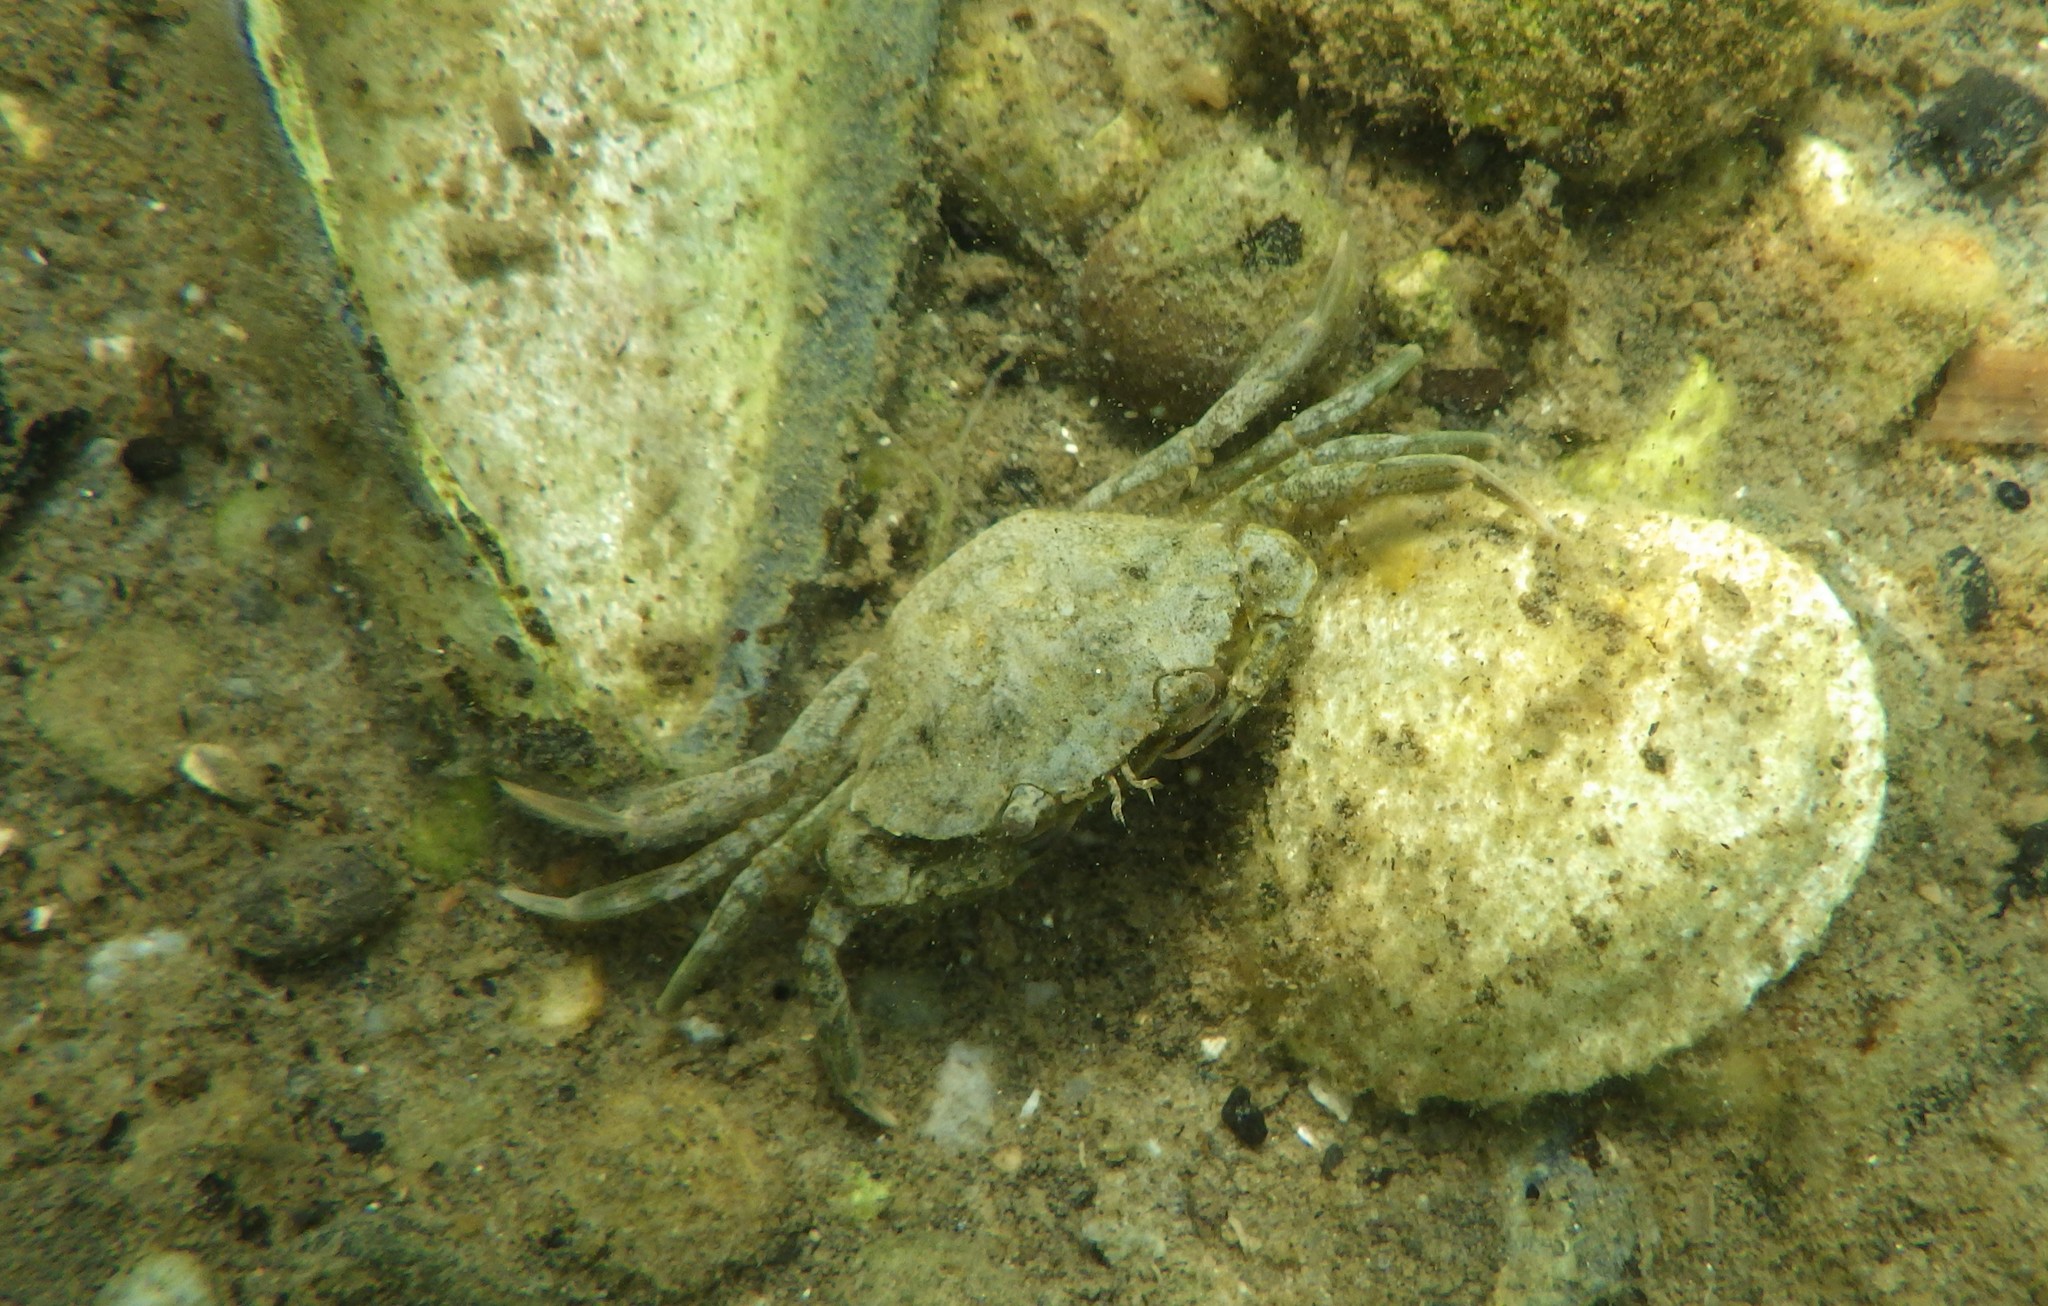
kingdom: Animalia
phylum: Arthropoda
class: Malacostraca
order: Decapoda
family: Carcinidae
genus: Carcinus
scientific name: Carcinus maenas
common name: European green crab
